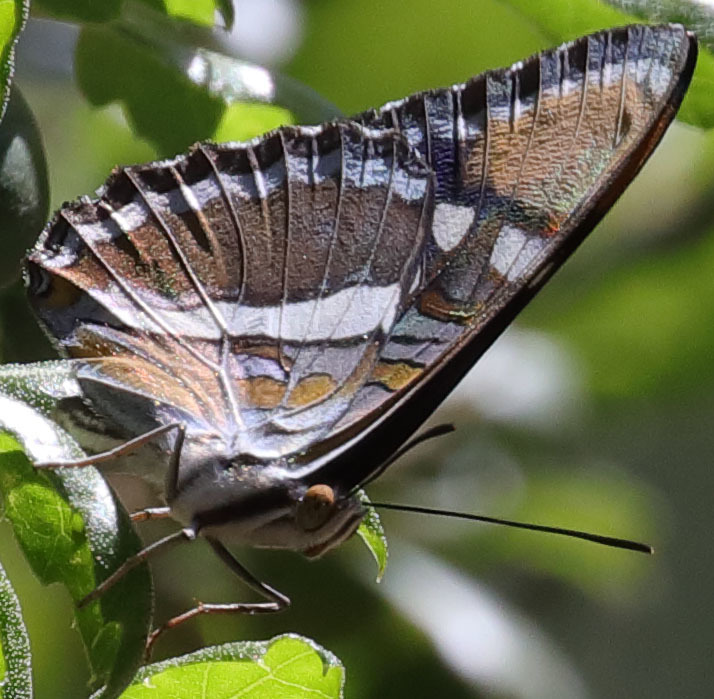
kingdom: Animalia
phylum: Arthropoda
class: Insecta
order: Lepidoptera
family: Nymphalidae
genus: Limenitis
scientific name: Limenitis bredowii
